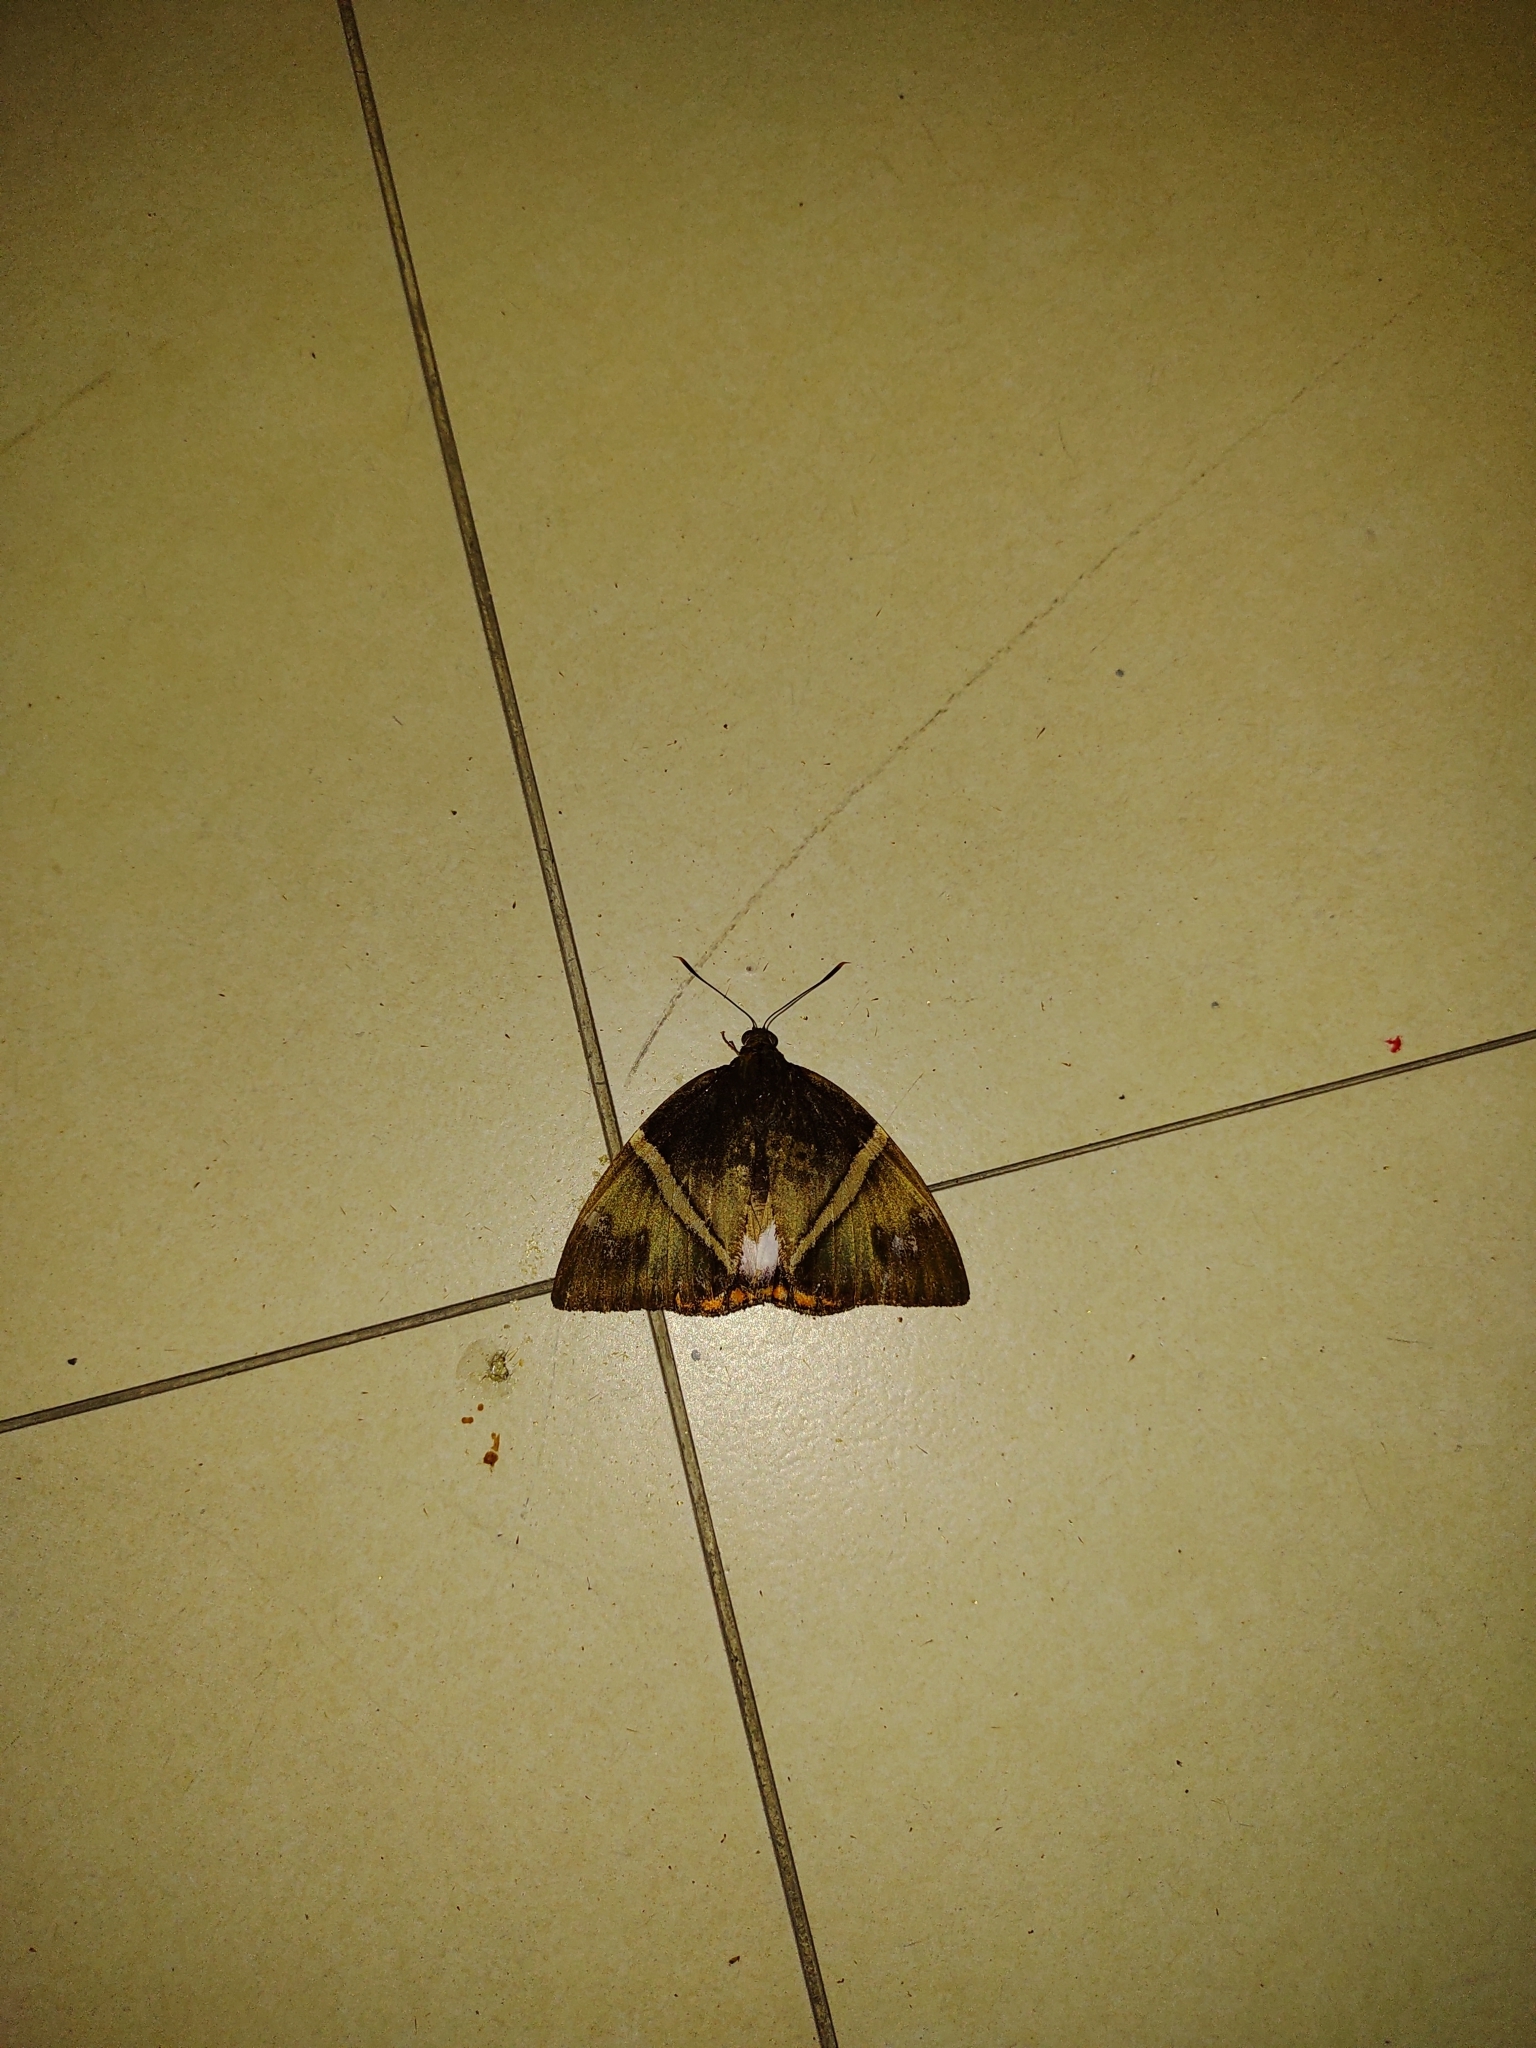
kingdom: Animalia
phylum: Arthropoda
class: Insecta
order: Lepidoptera
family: Castniidae
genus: Castnia
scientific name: Castnia licus
